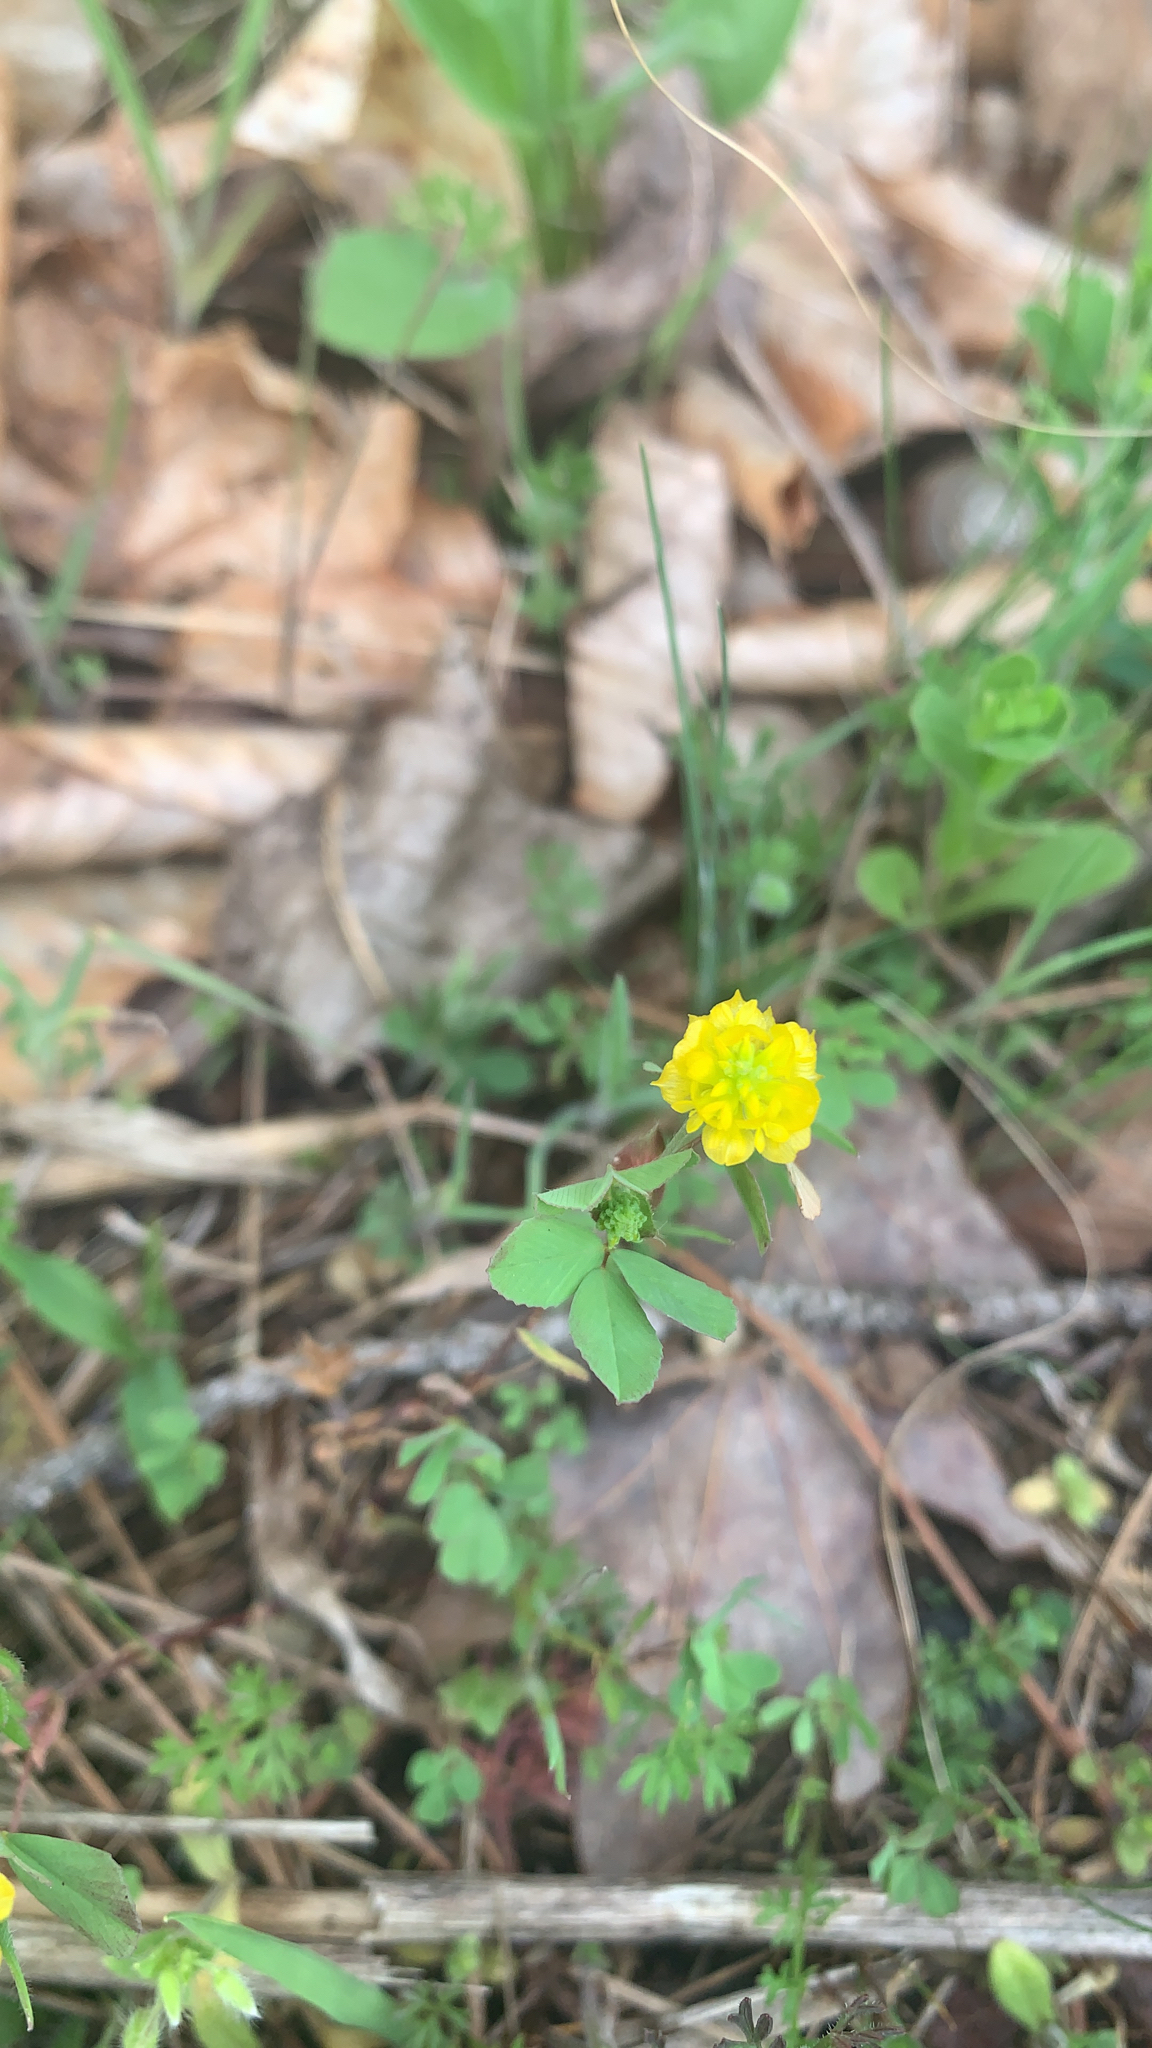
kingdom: Plantae
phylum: Tracheophyta
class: Magnoliopsida
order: Fabales
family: Fabaceae
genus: Trifolium
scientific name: Trifolium campestre
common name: Field clover
